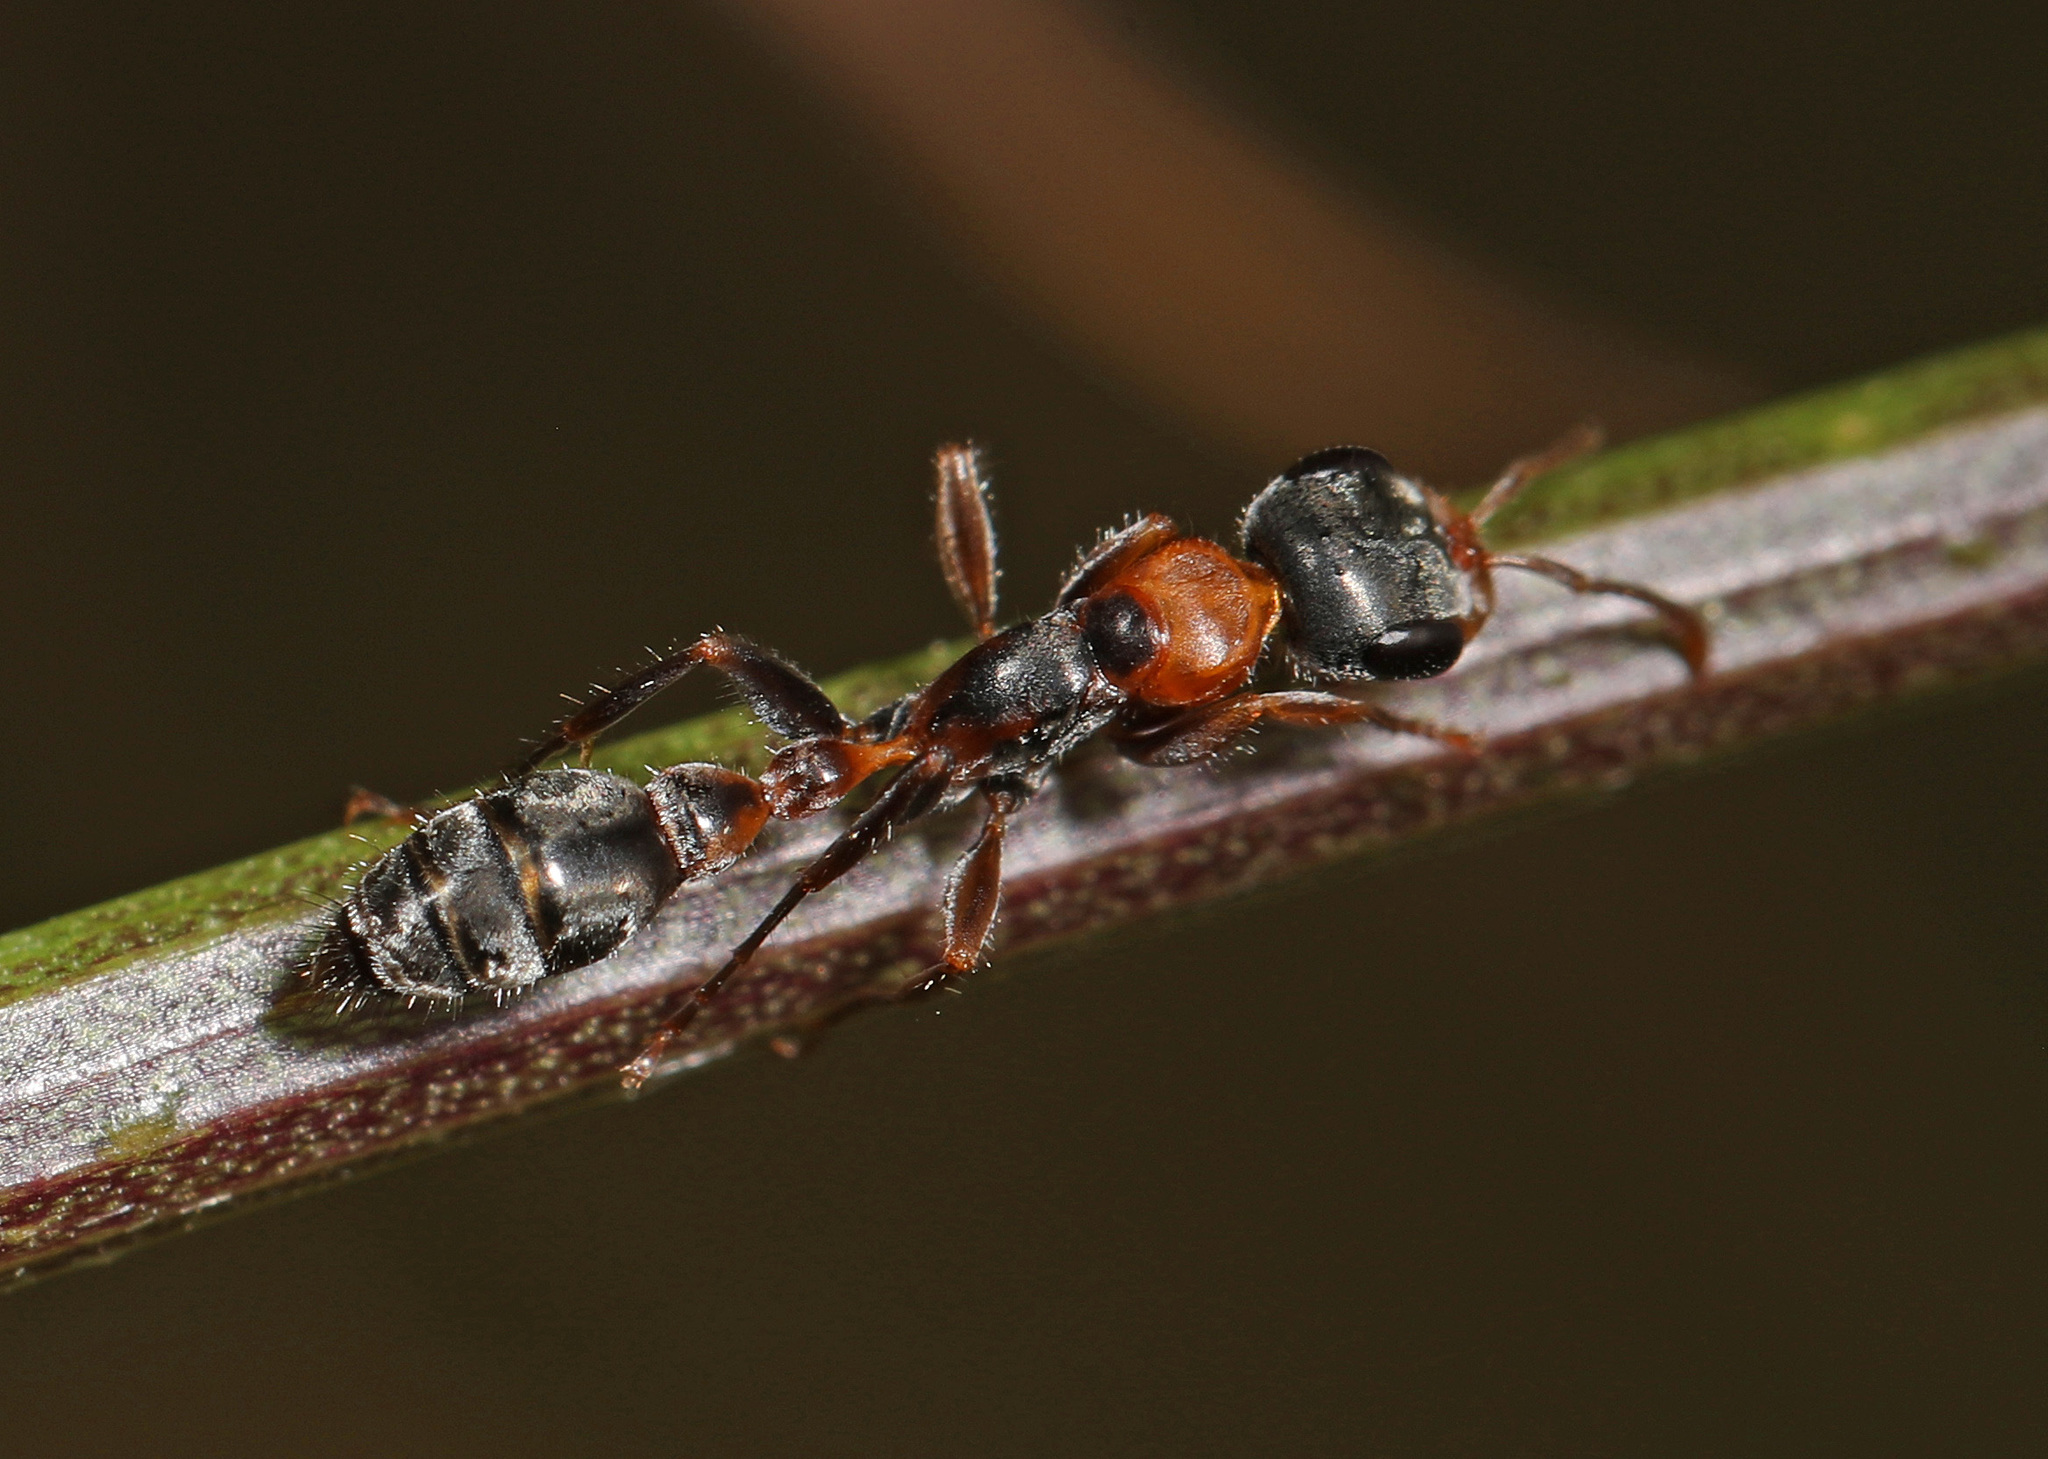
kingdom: Animalia
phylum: Arthropoda
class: Insecta
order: Hymenoptera
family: Formicidae
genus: Pseudomyrmex
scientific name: Pseudomyrmex gracilis
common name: Graceful twig ant
